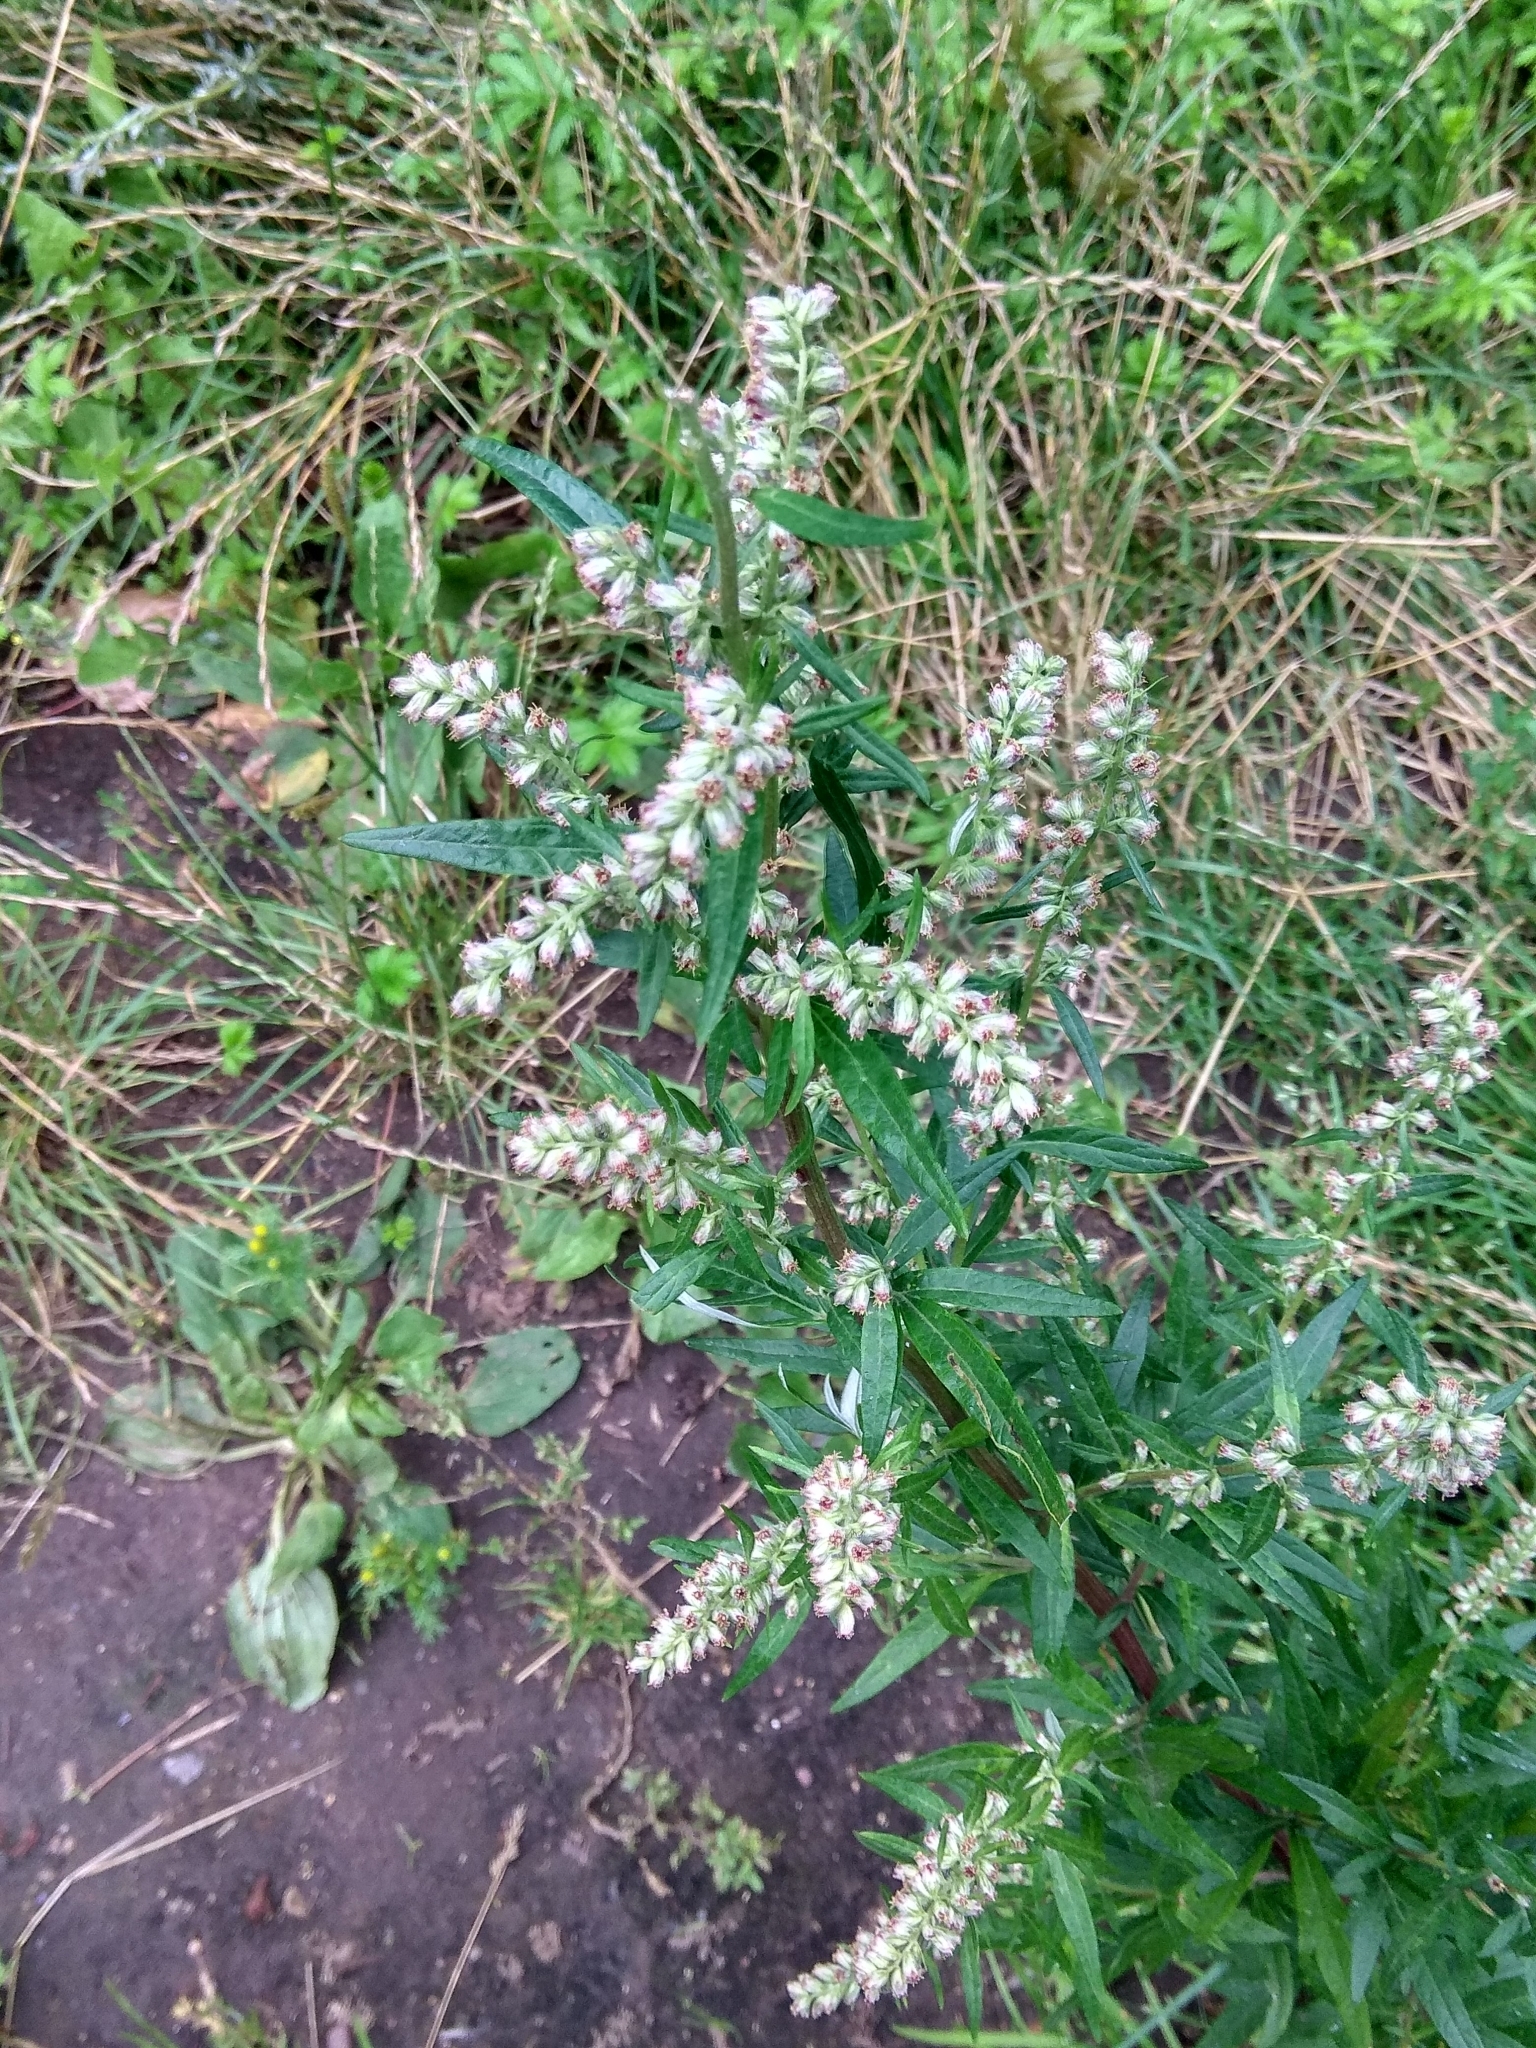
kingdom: Plantae
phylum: Tracheophyta
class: Magnoliopsida
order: Asterales
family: Asteraceae
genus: Artemisia
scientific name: Artemisia vulgaris
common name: Mugwort
